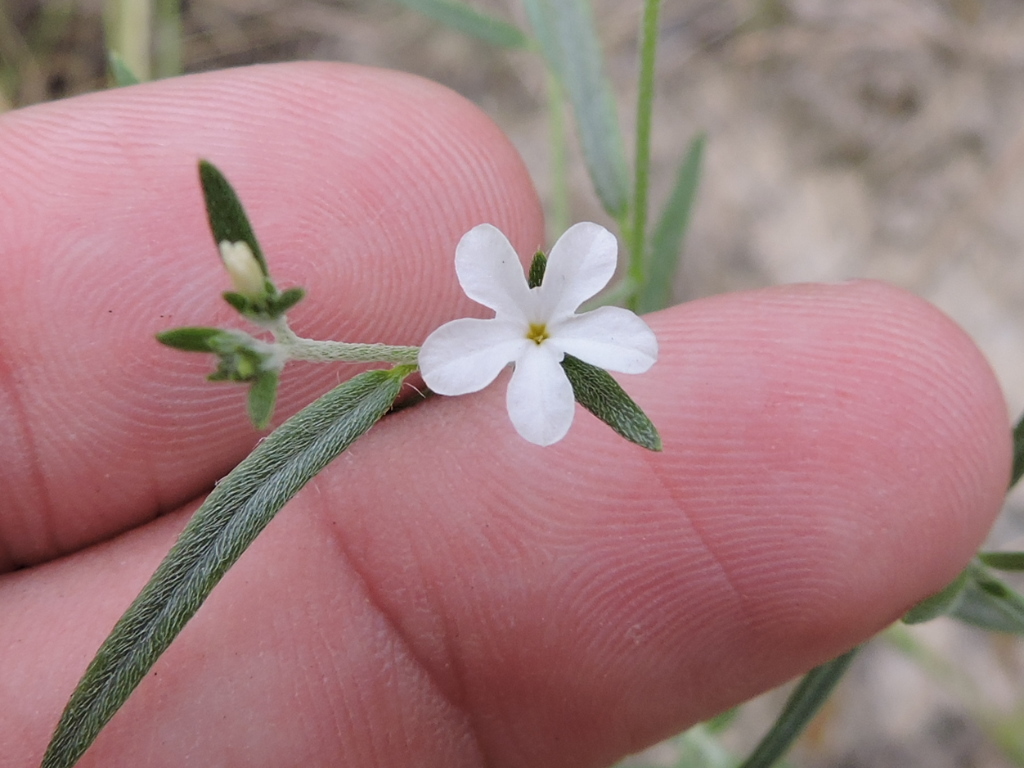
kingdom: Plantae
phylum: Tracheophyta
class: Magnoliopsida
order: Boraginales
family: Heliotropiaceae
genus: Euploca
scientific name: Euploca tenella
